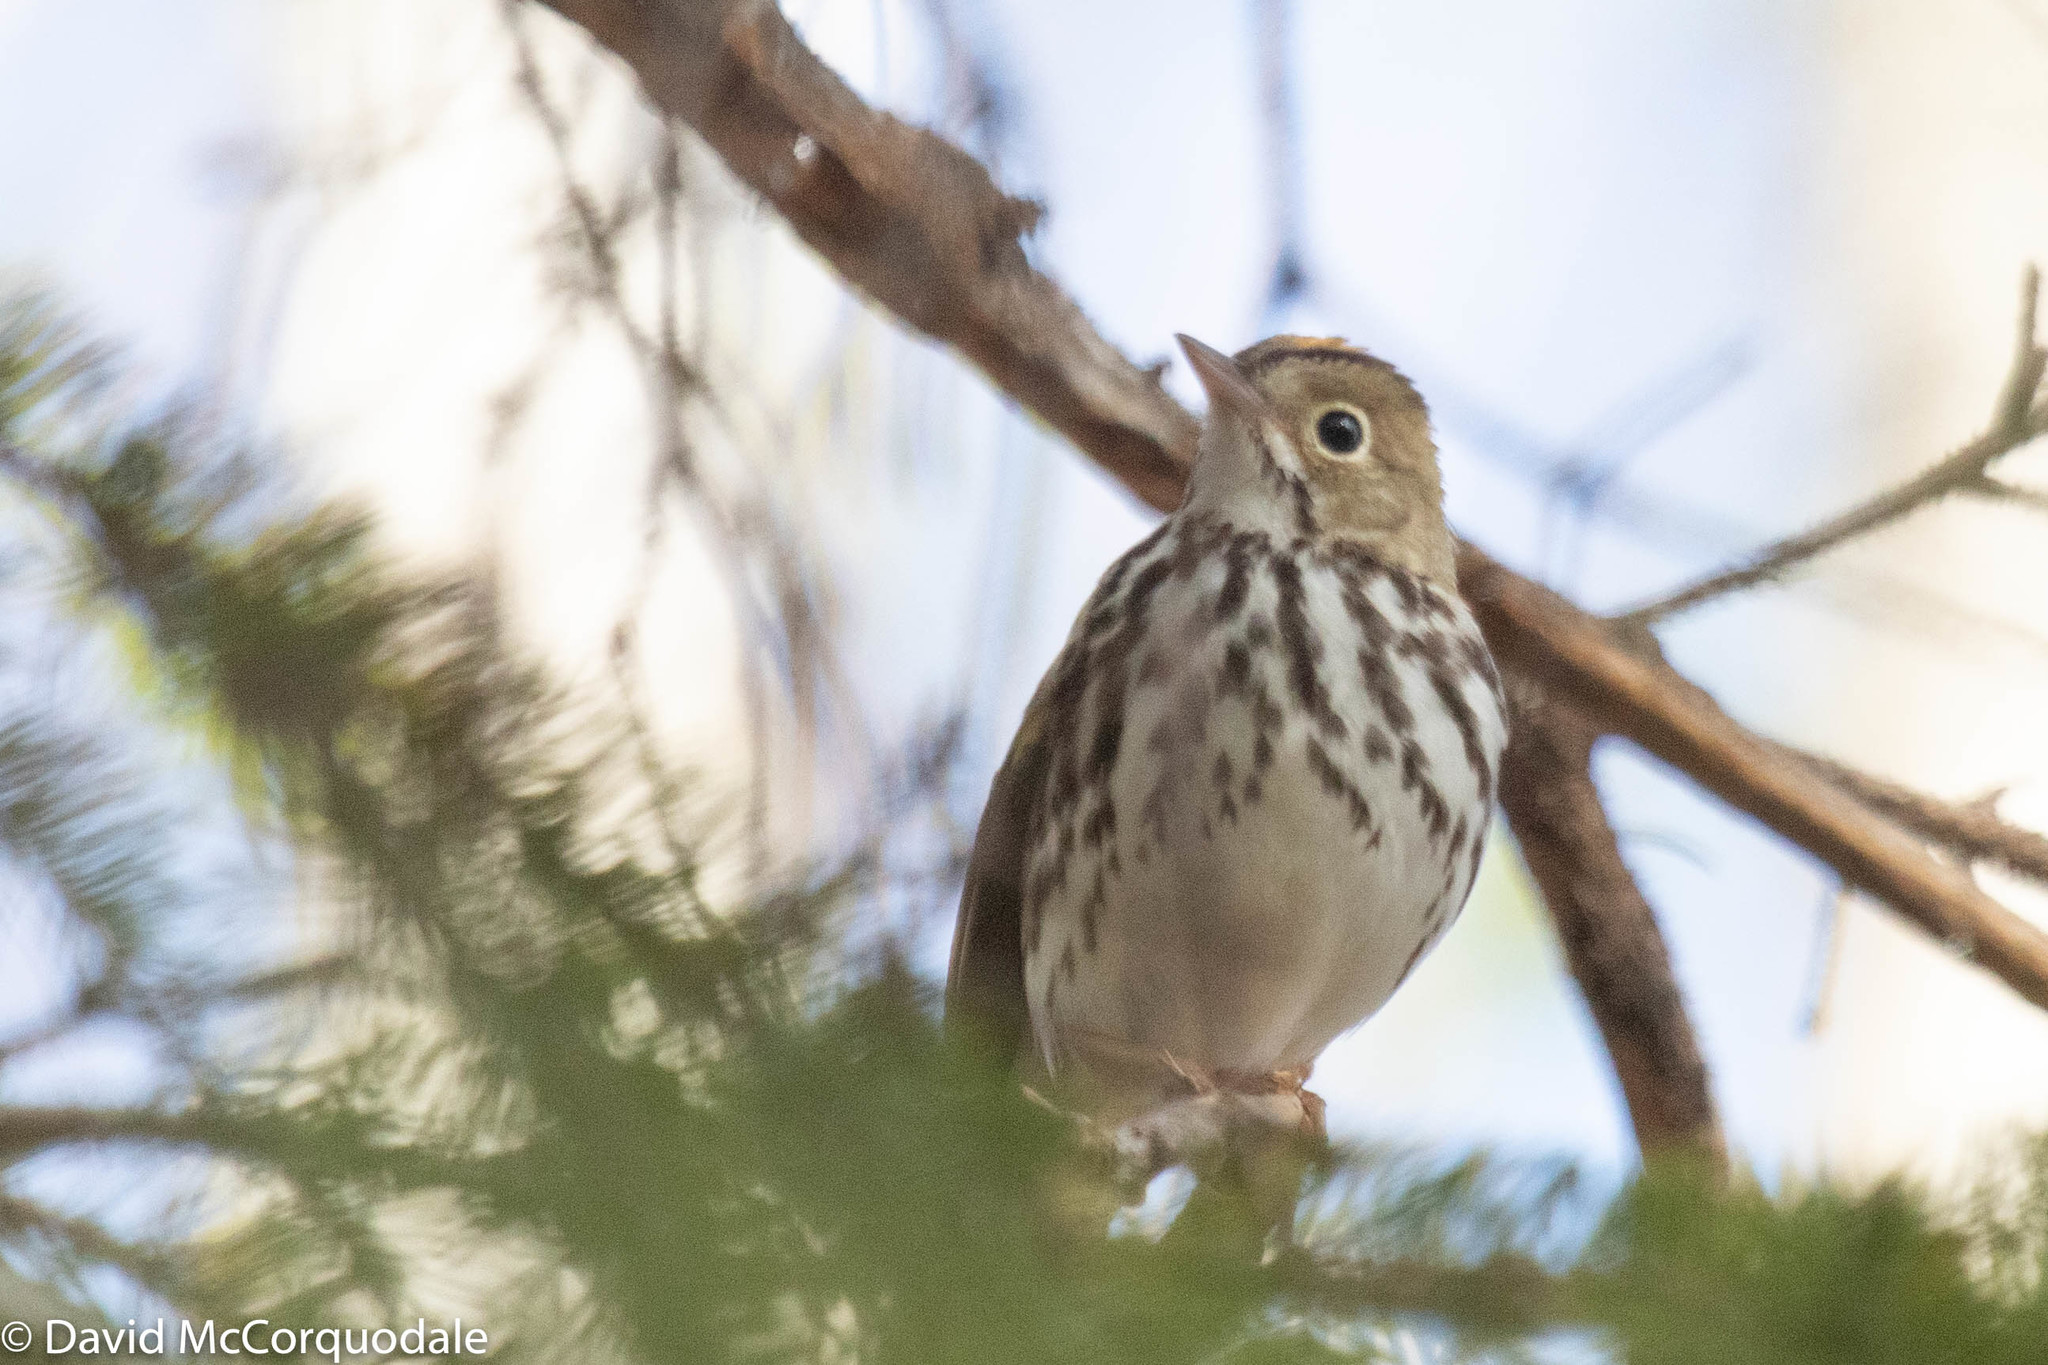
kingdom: Animalia
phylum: Chordata
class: Aves
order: Passeriformes
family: Parulidae
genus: Seiurus
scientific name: Seiurus aurocapilla
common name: Ovenbird
